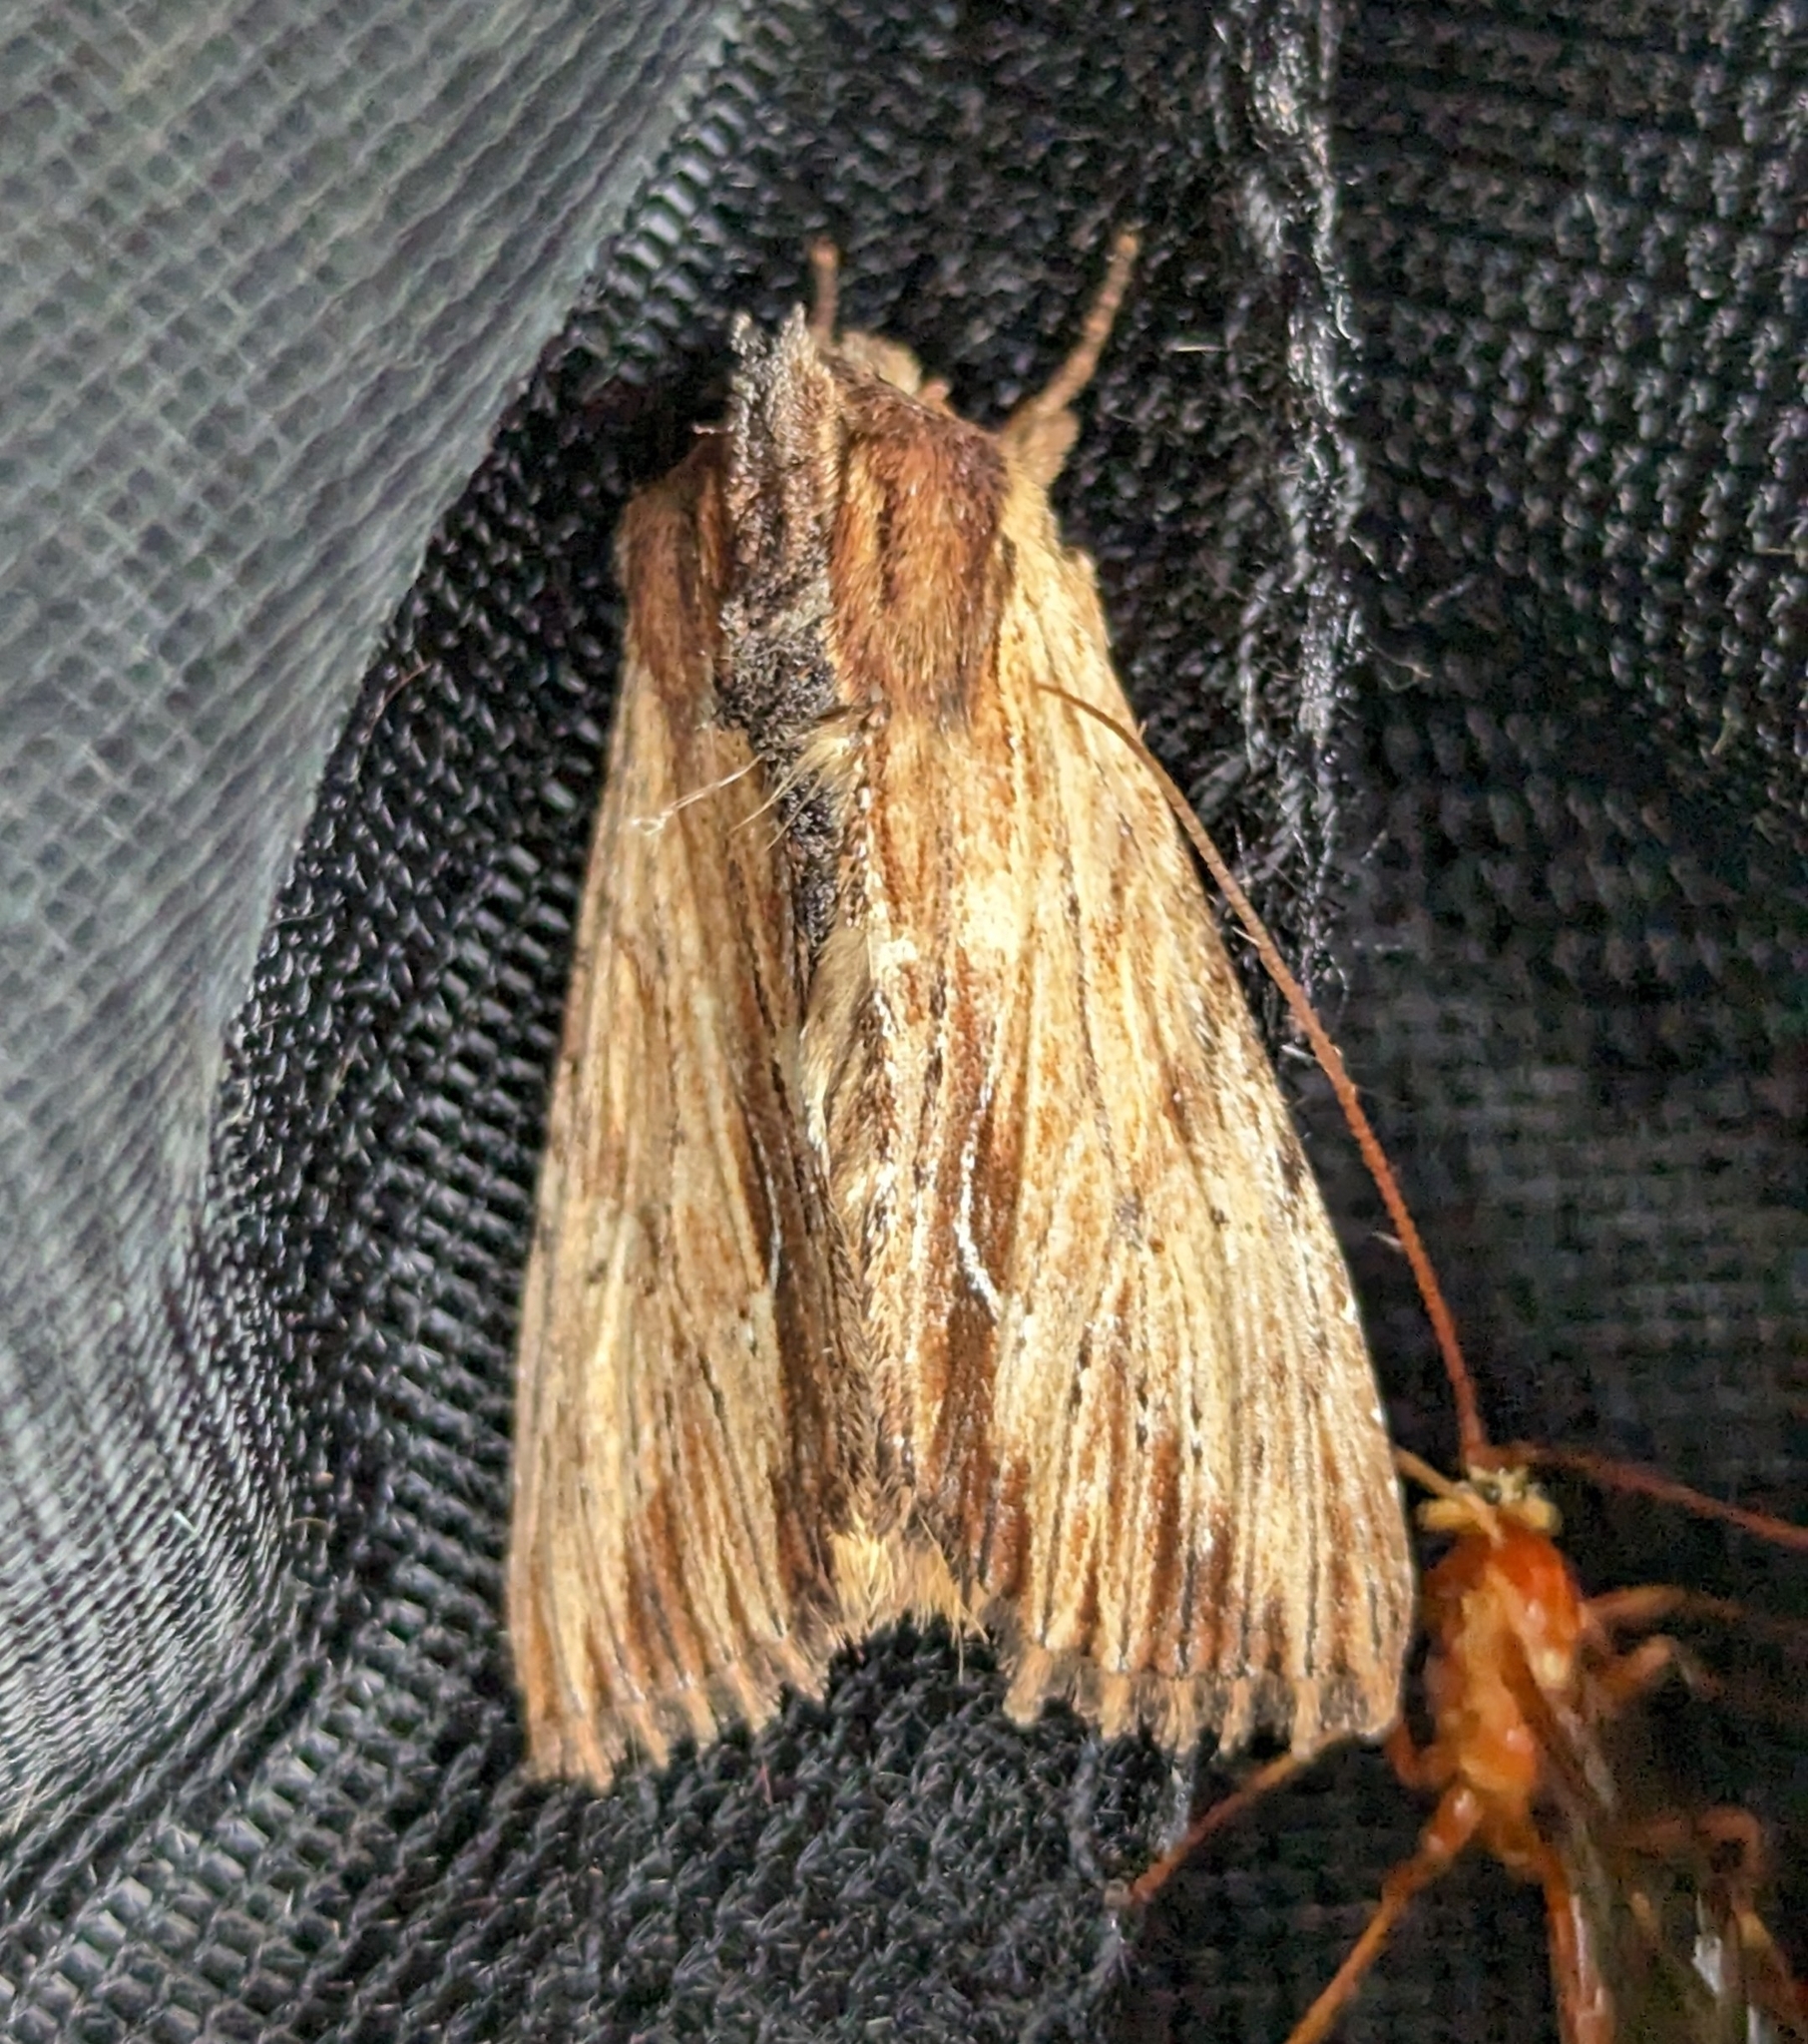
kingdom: Animalia
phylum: Arthropoda
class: Insecta
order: Lepidoptera
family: Noctuidae
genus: Apamea
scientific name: Apamea cuculliformis
